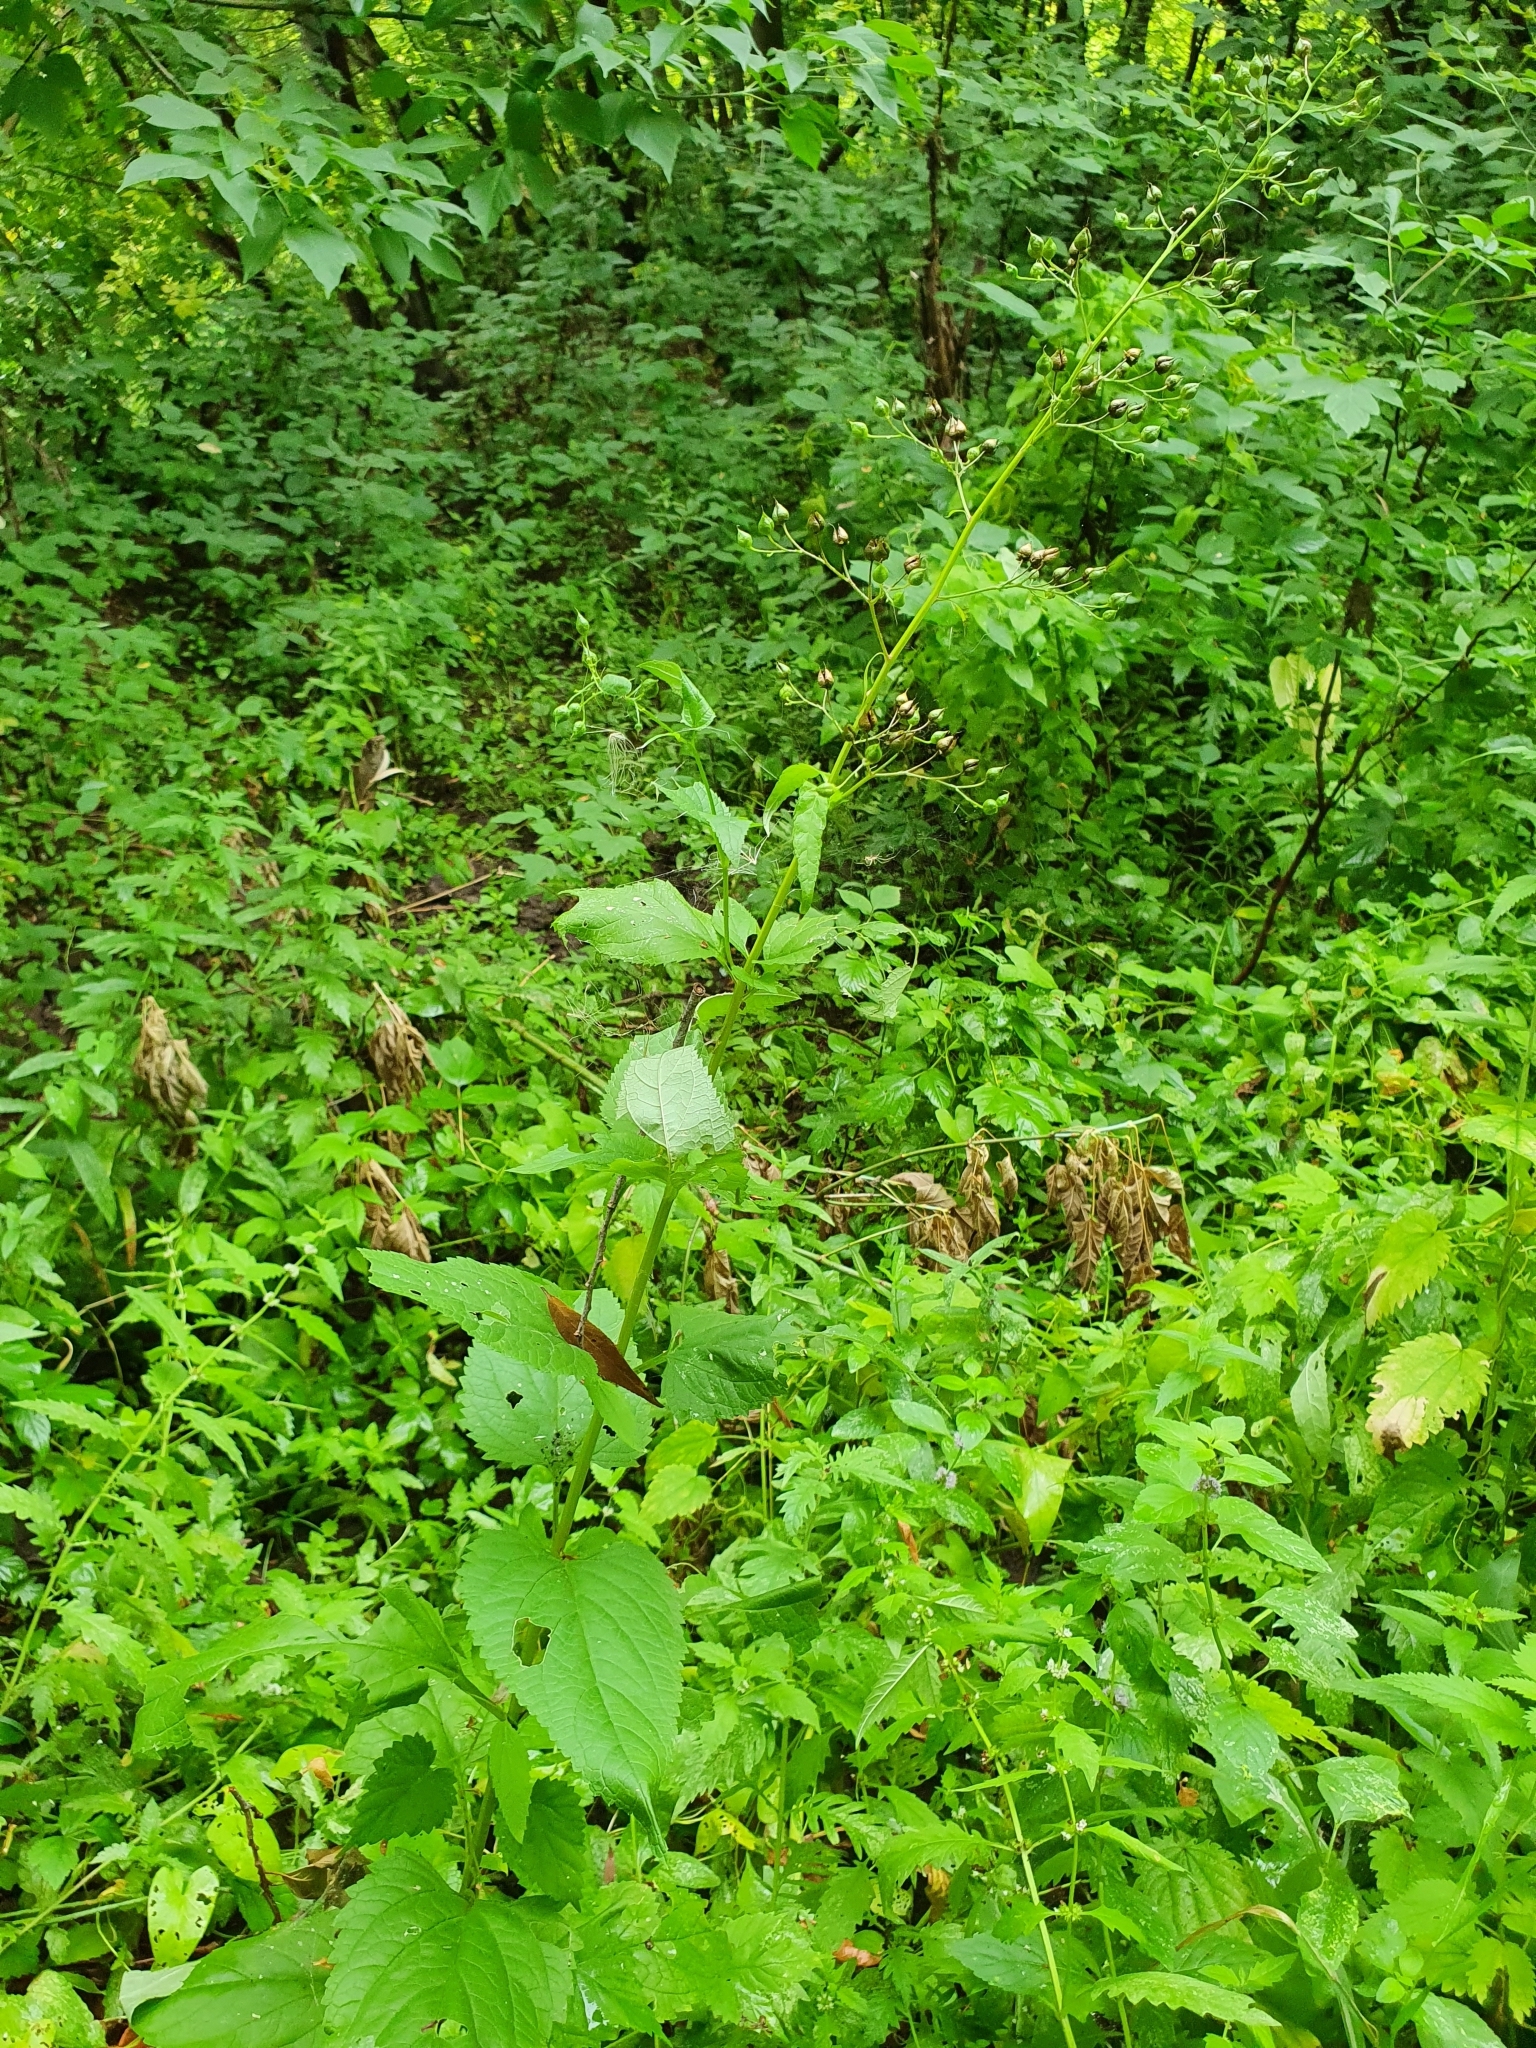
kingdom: Plantae
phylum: Tracheophyta
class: Magnoliopsida
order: Lamiales
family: Scrophulariaceae
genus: Scrophularia
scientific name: Scrophularia nodosa
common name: Common figwort
